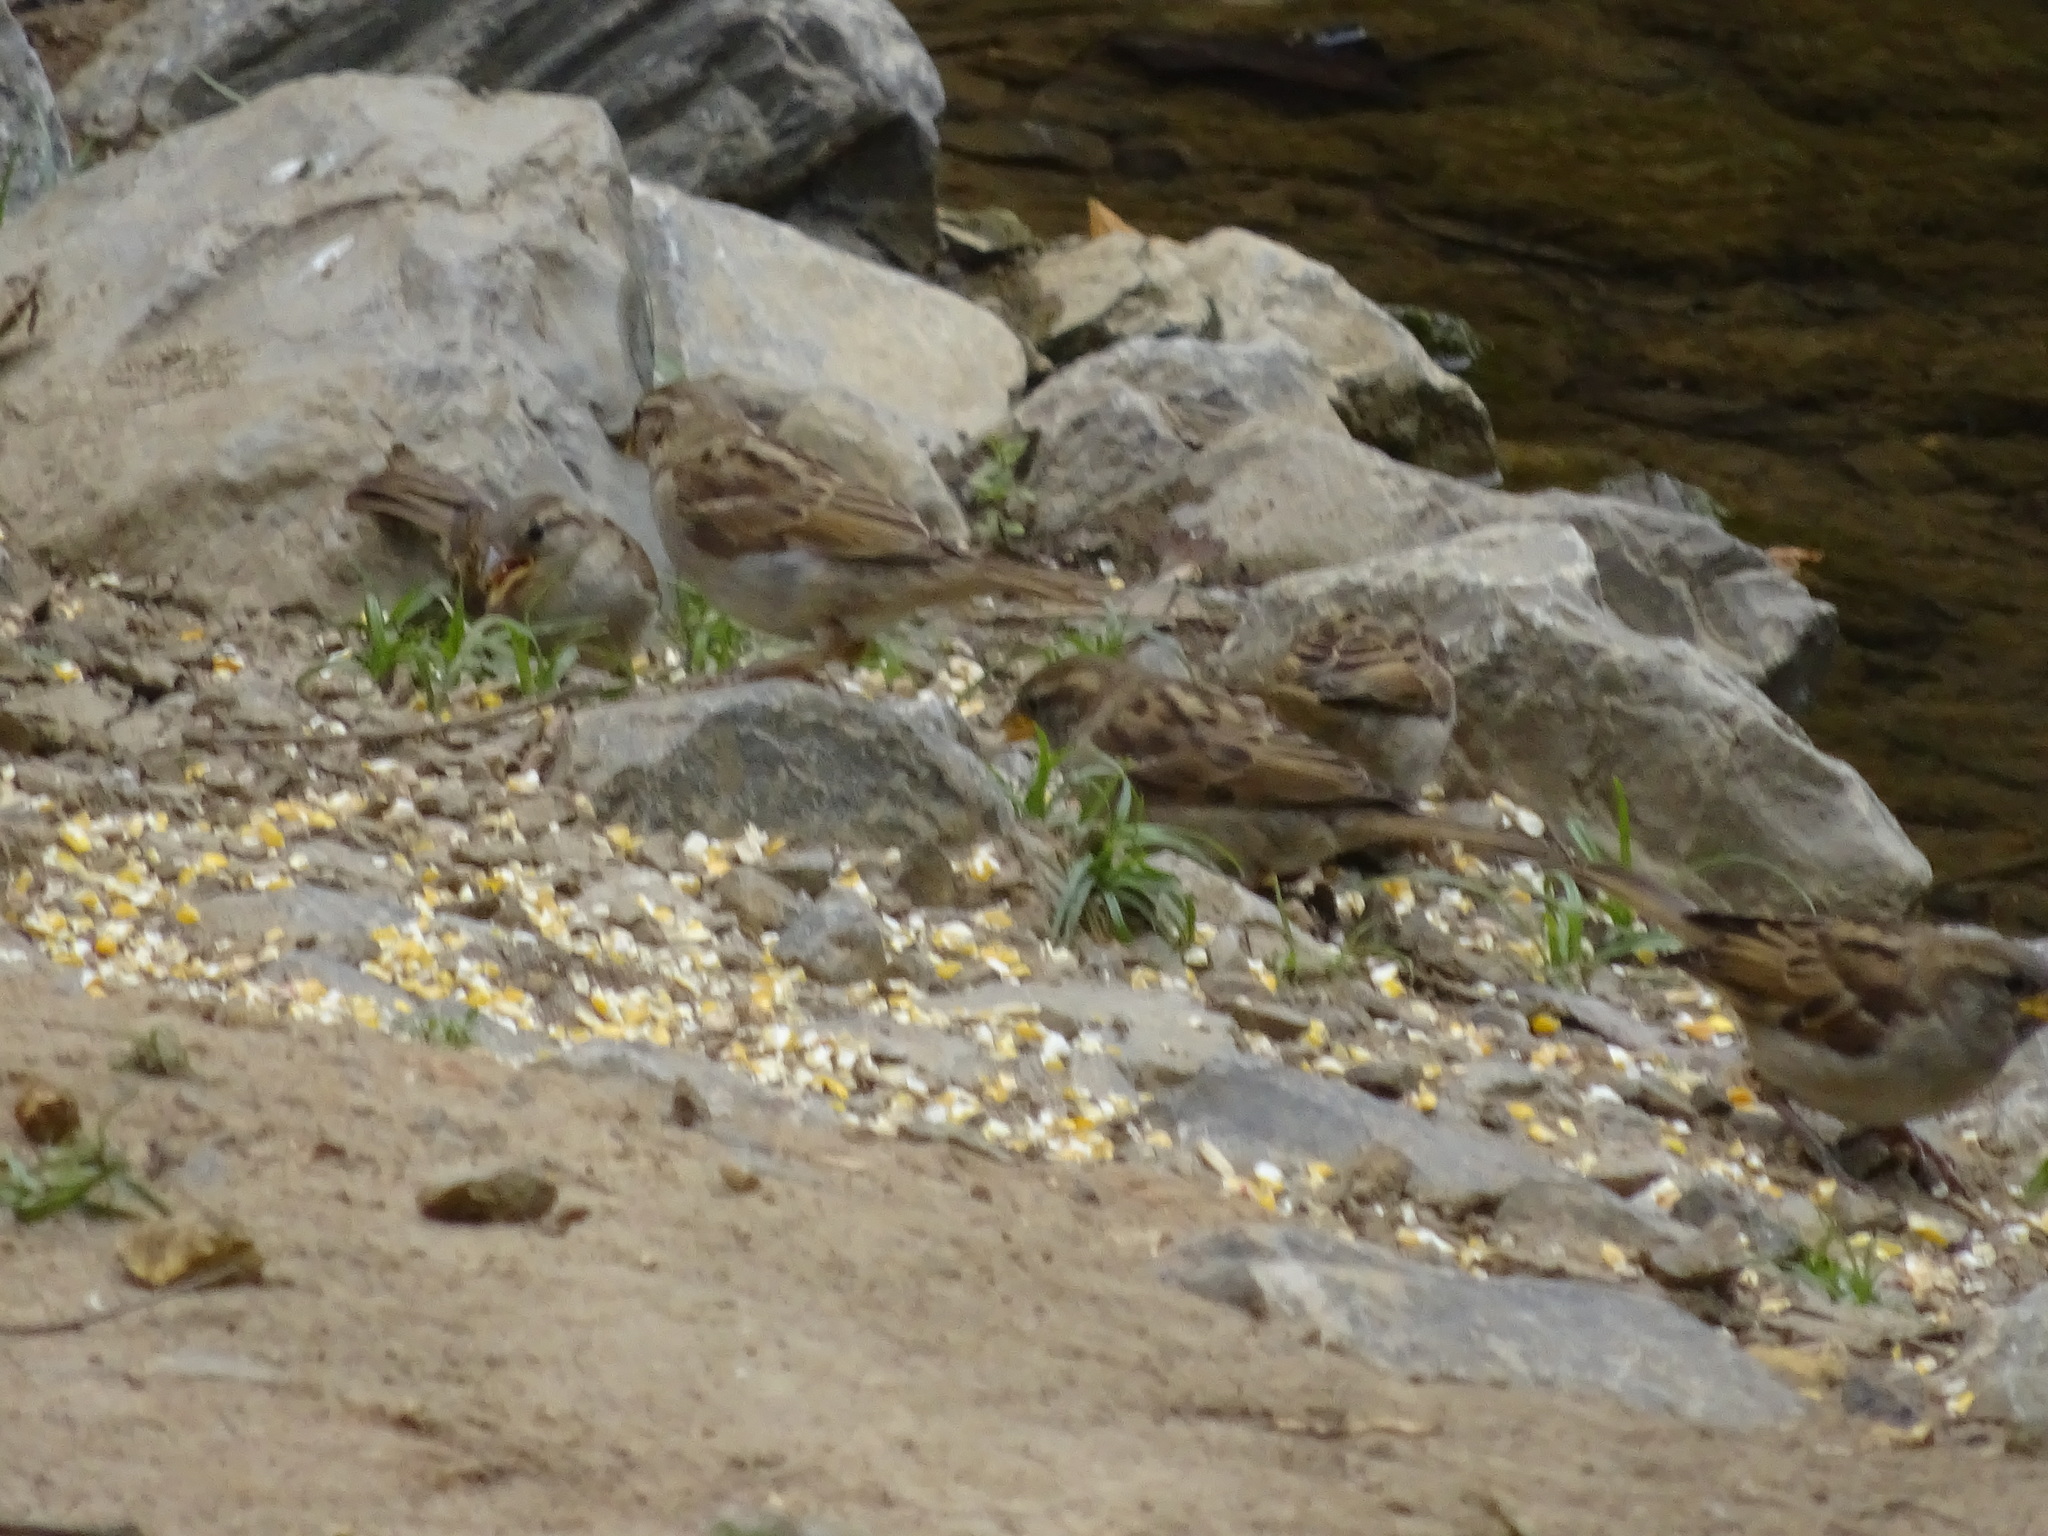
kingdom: Animalia
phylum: Chordata
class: Aves
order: Passeriformes
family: Passeridae
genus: Passer
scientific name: Passer domesticus
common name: House sparrow
